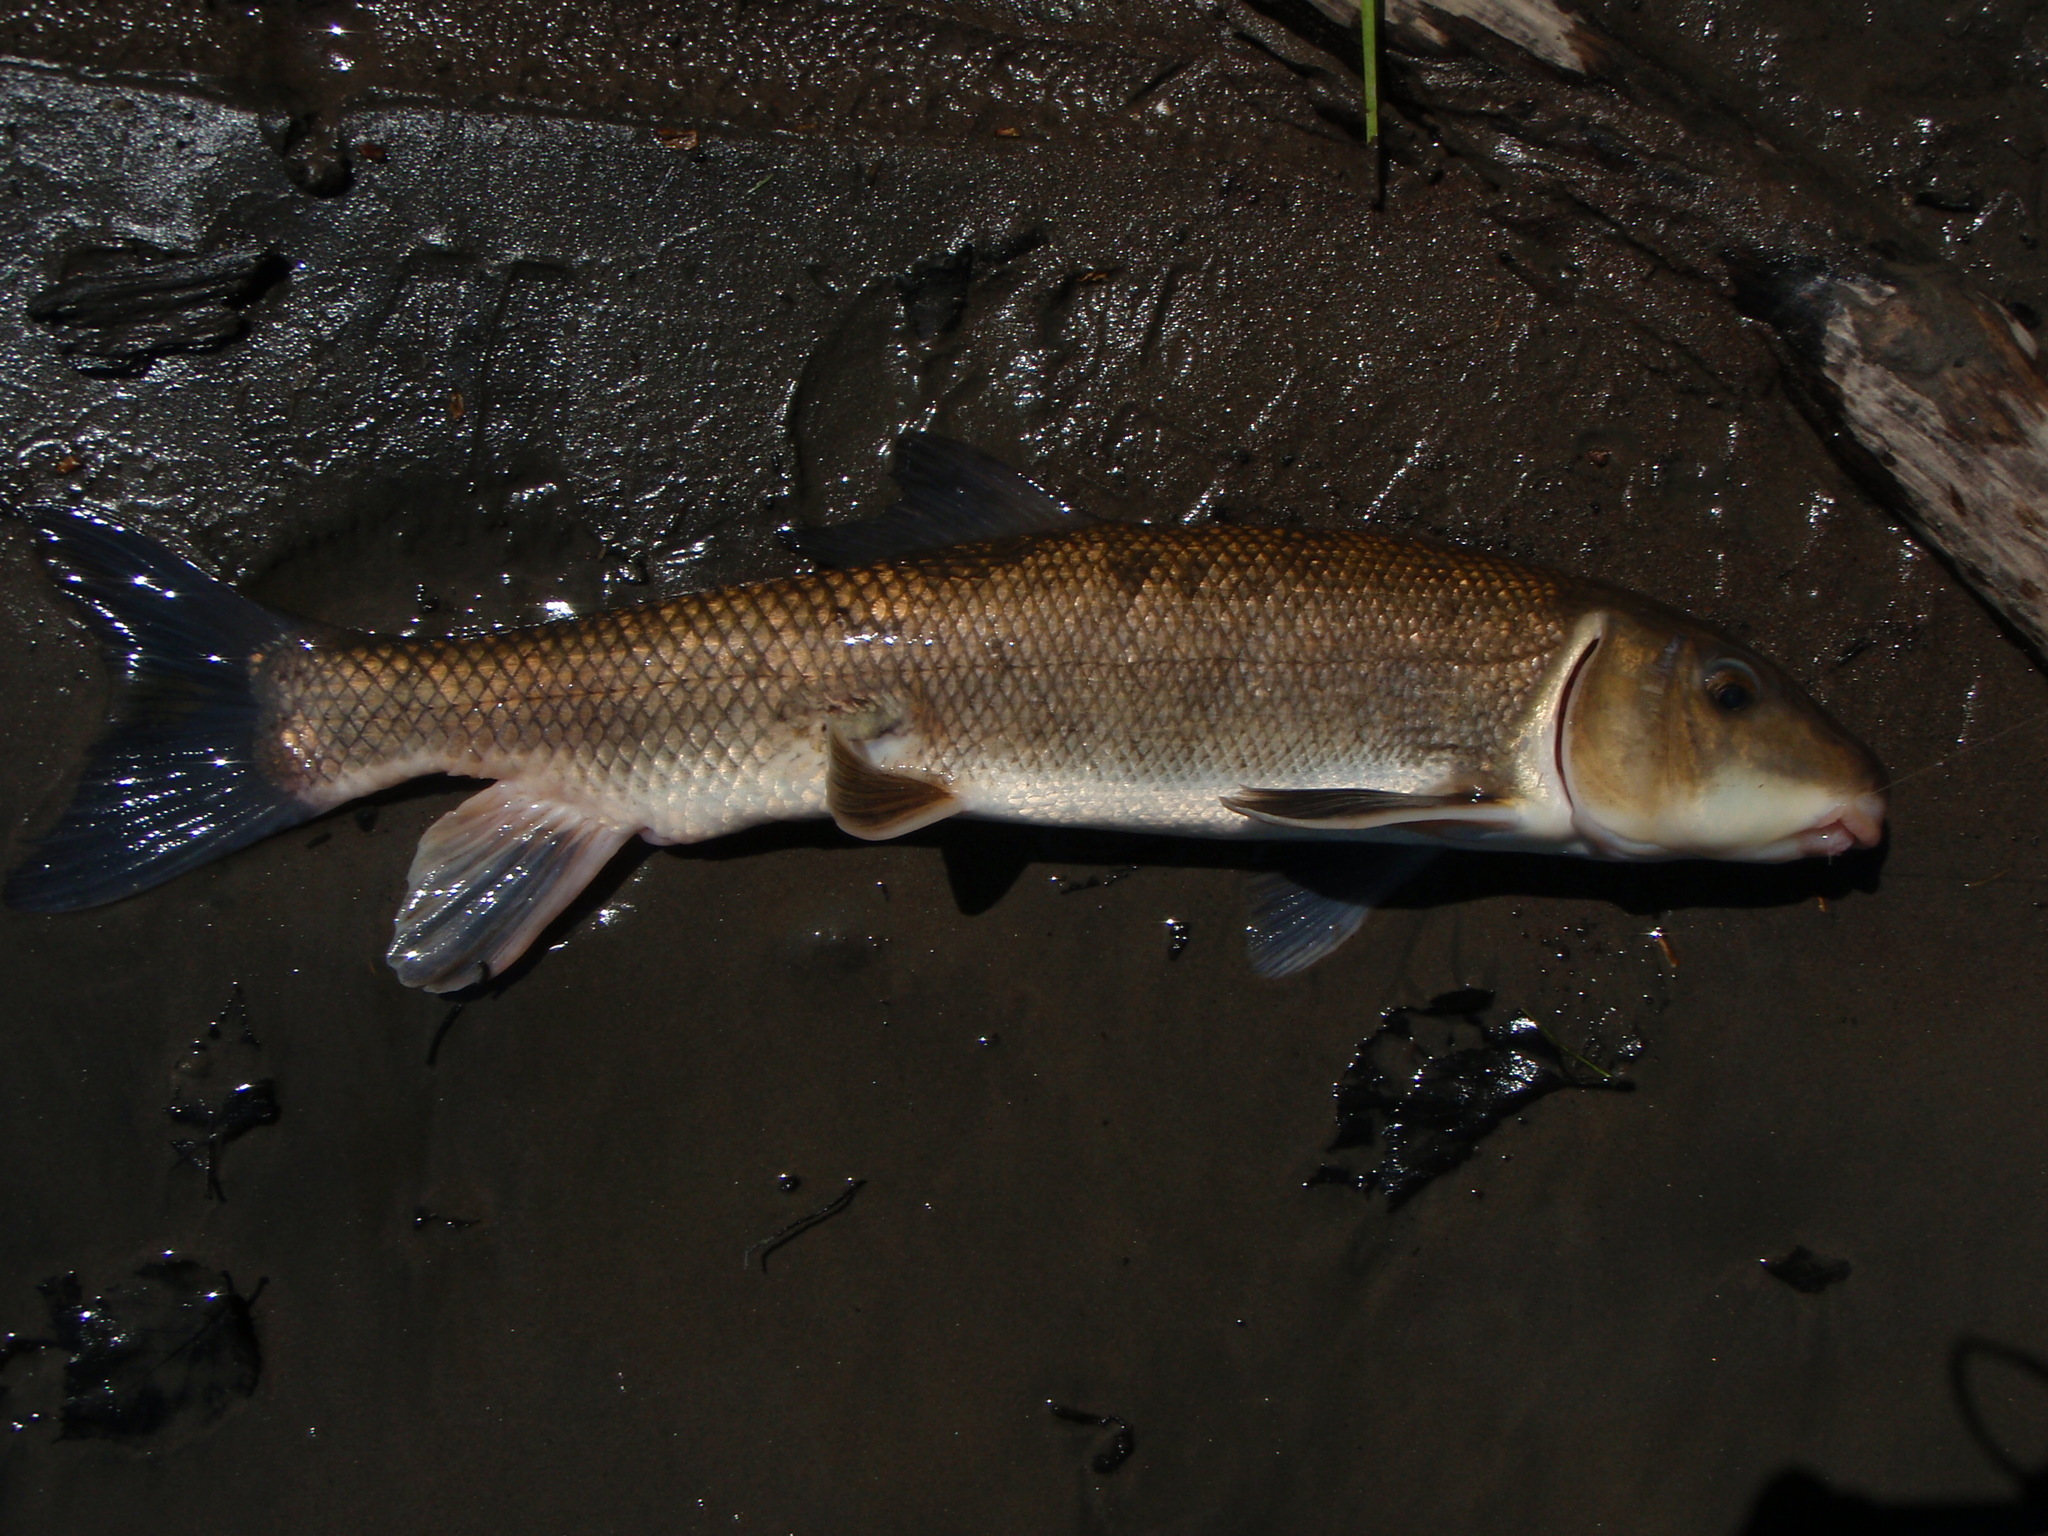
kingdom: Animalia
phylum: Chordata
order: Cypriniformes
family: Catostomidae
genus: Catostomus
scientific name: Catostomus commersonii
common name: White sucker
